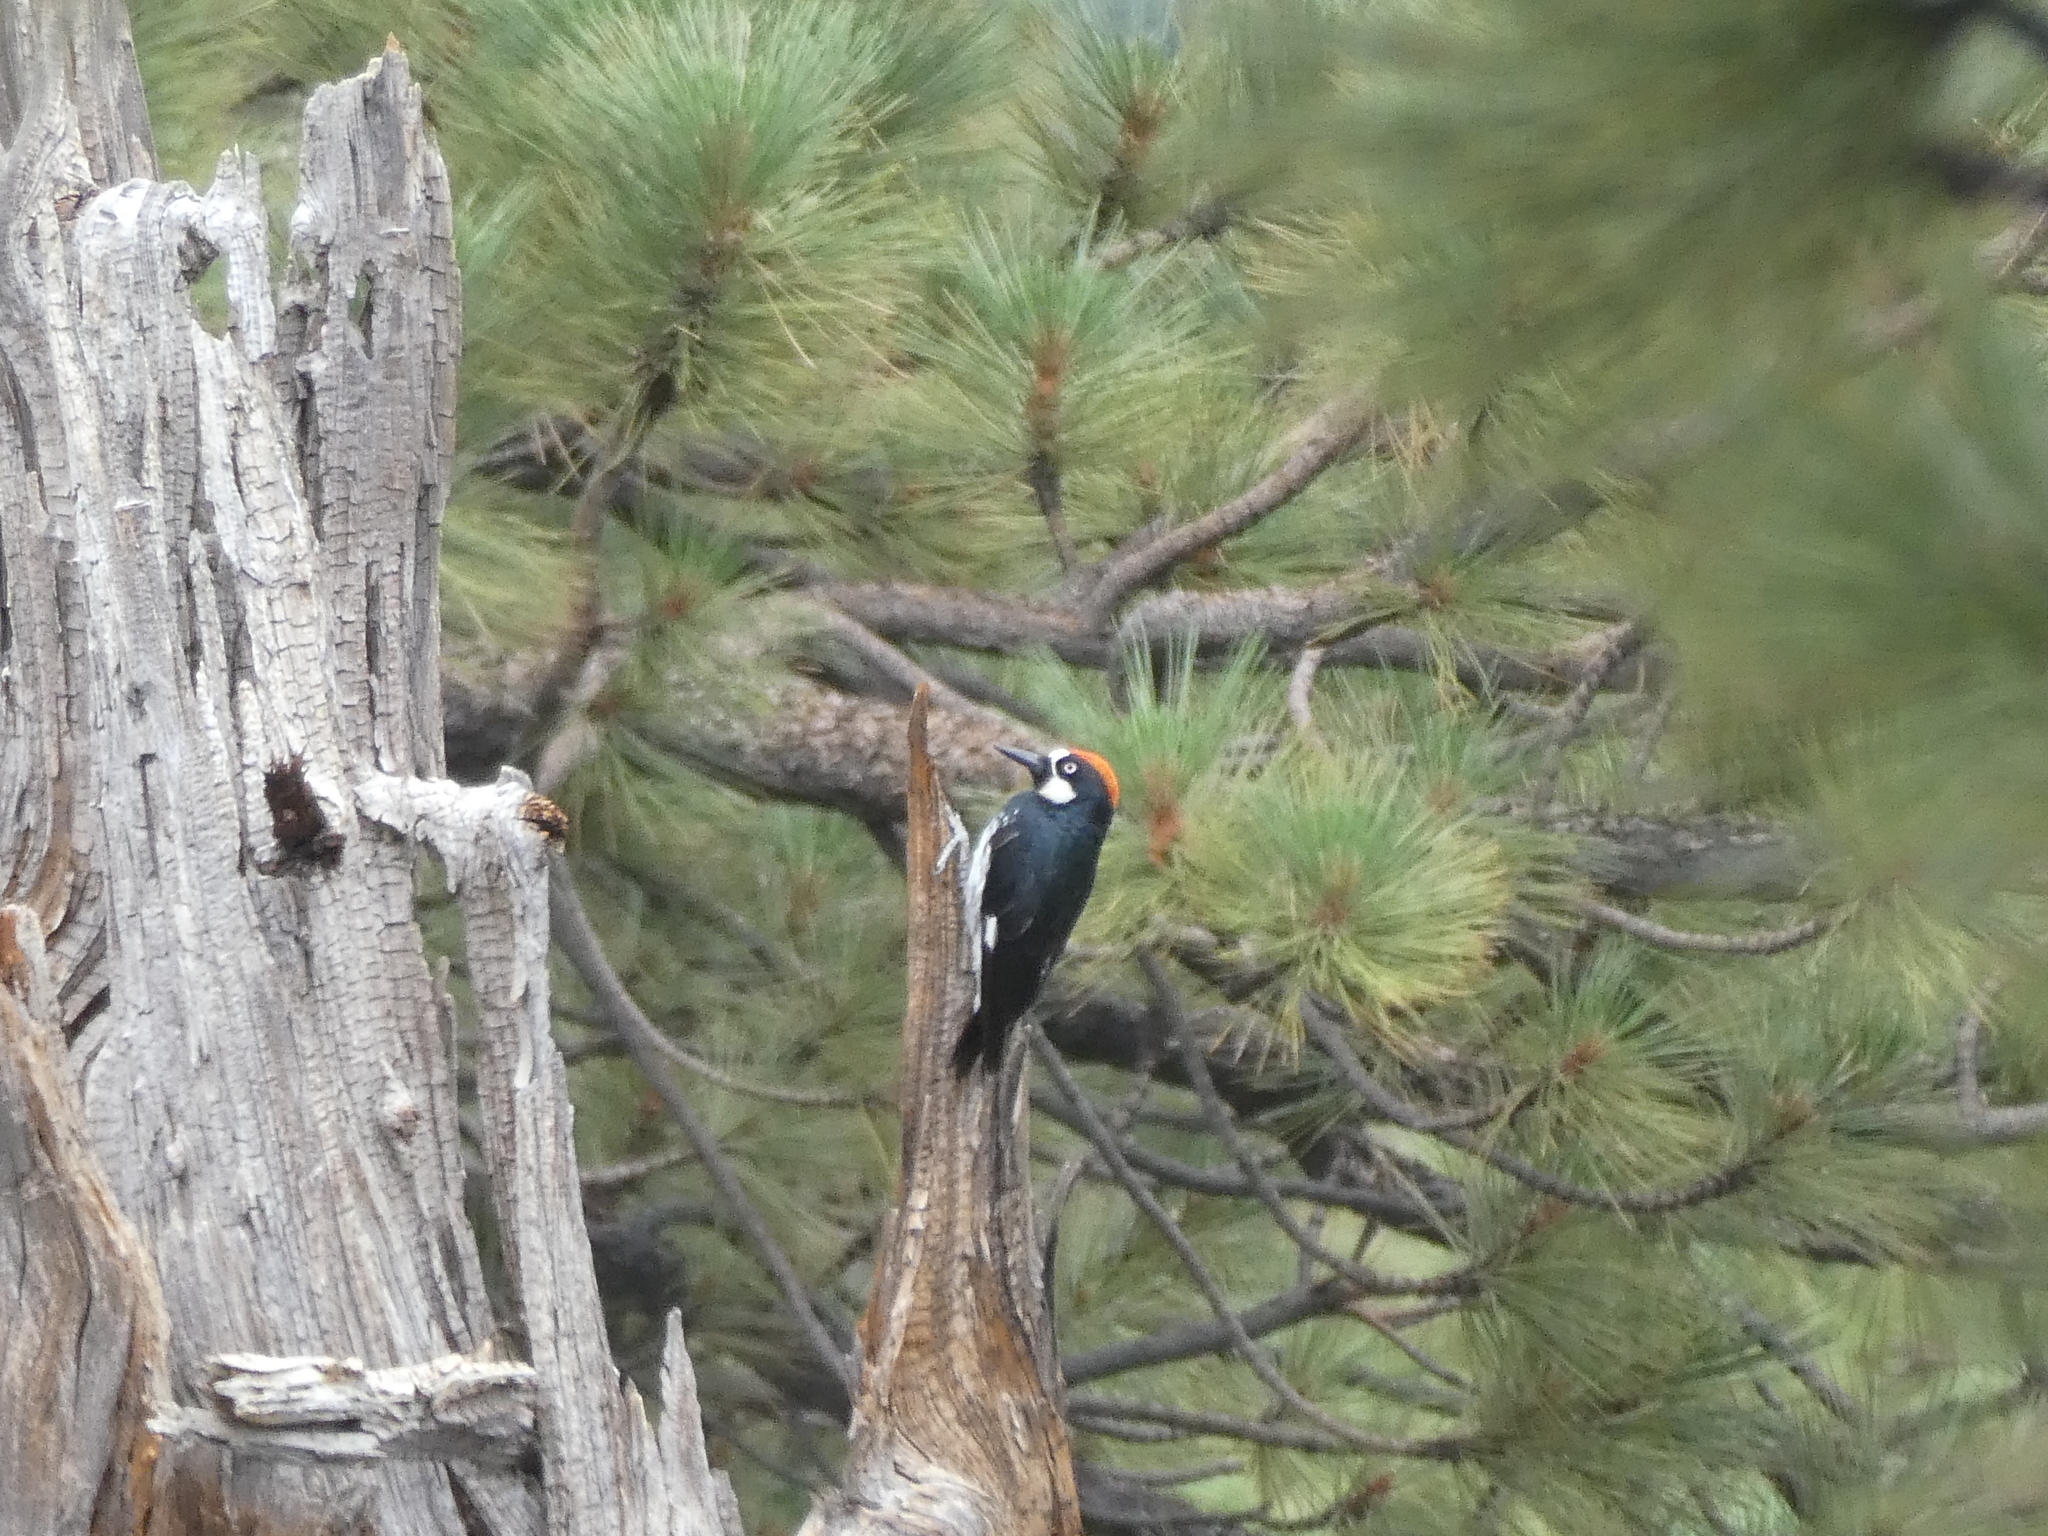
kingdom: Animalia
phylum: Chordata
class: Aves
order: Piciformes
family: Picidae
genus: Melanerpes
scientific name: Melanerpes formicivorus
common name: Acorn woodpecker
